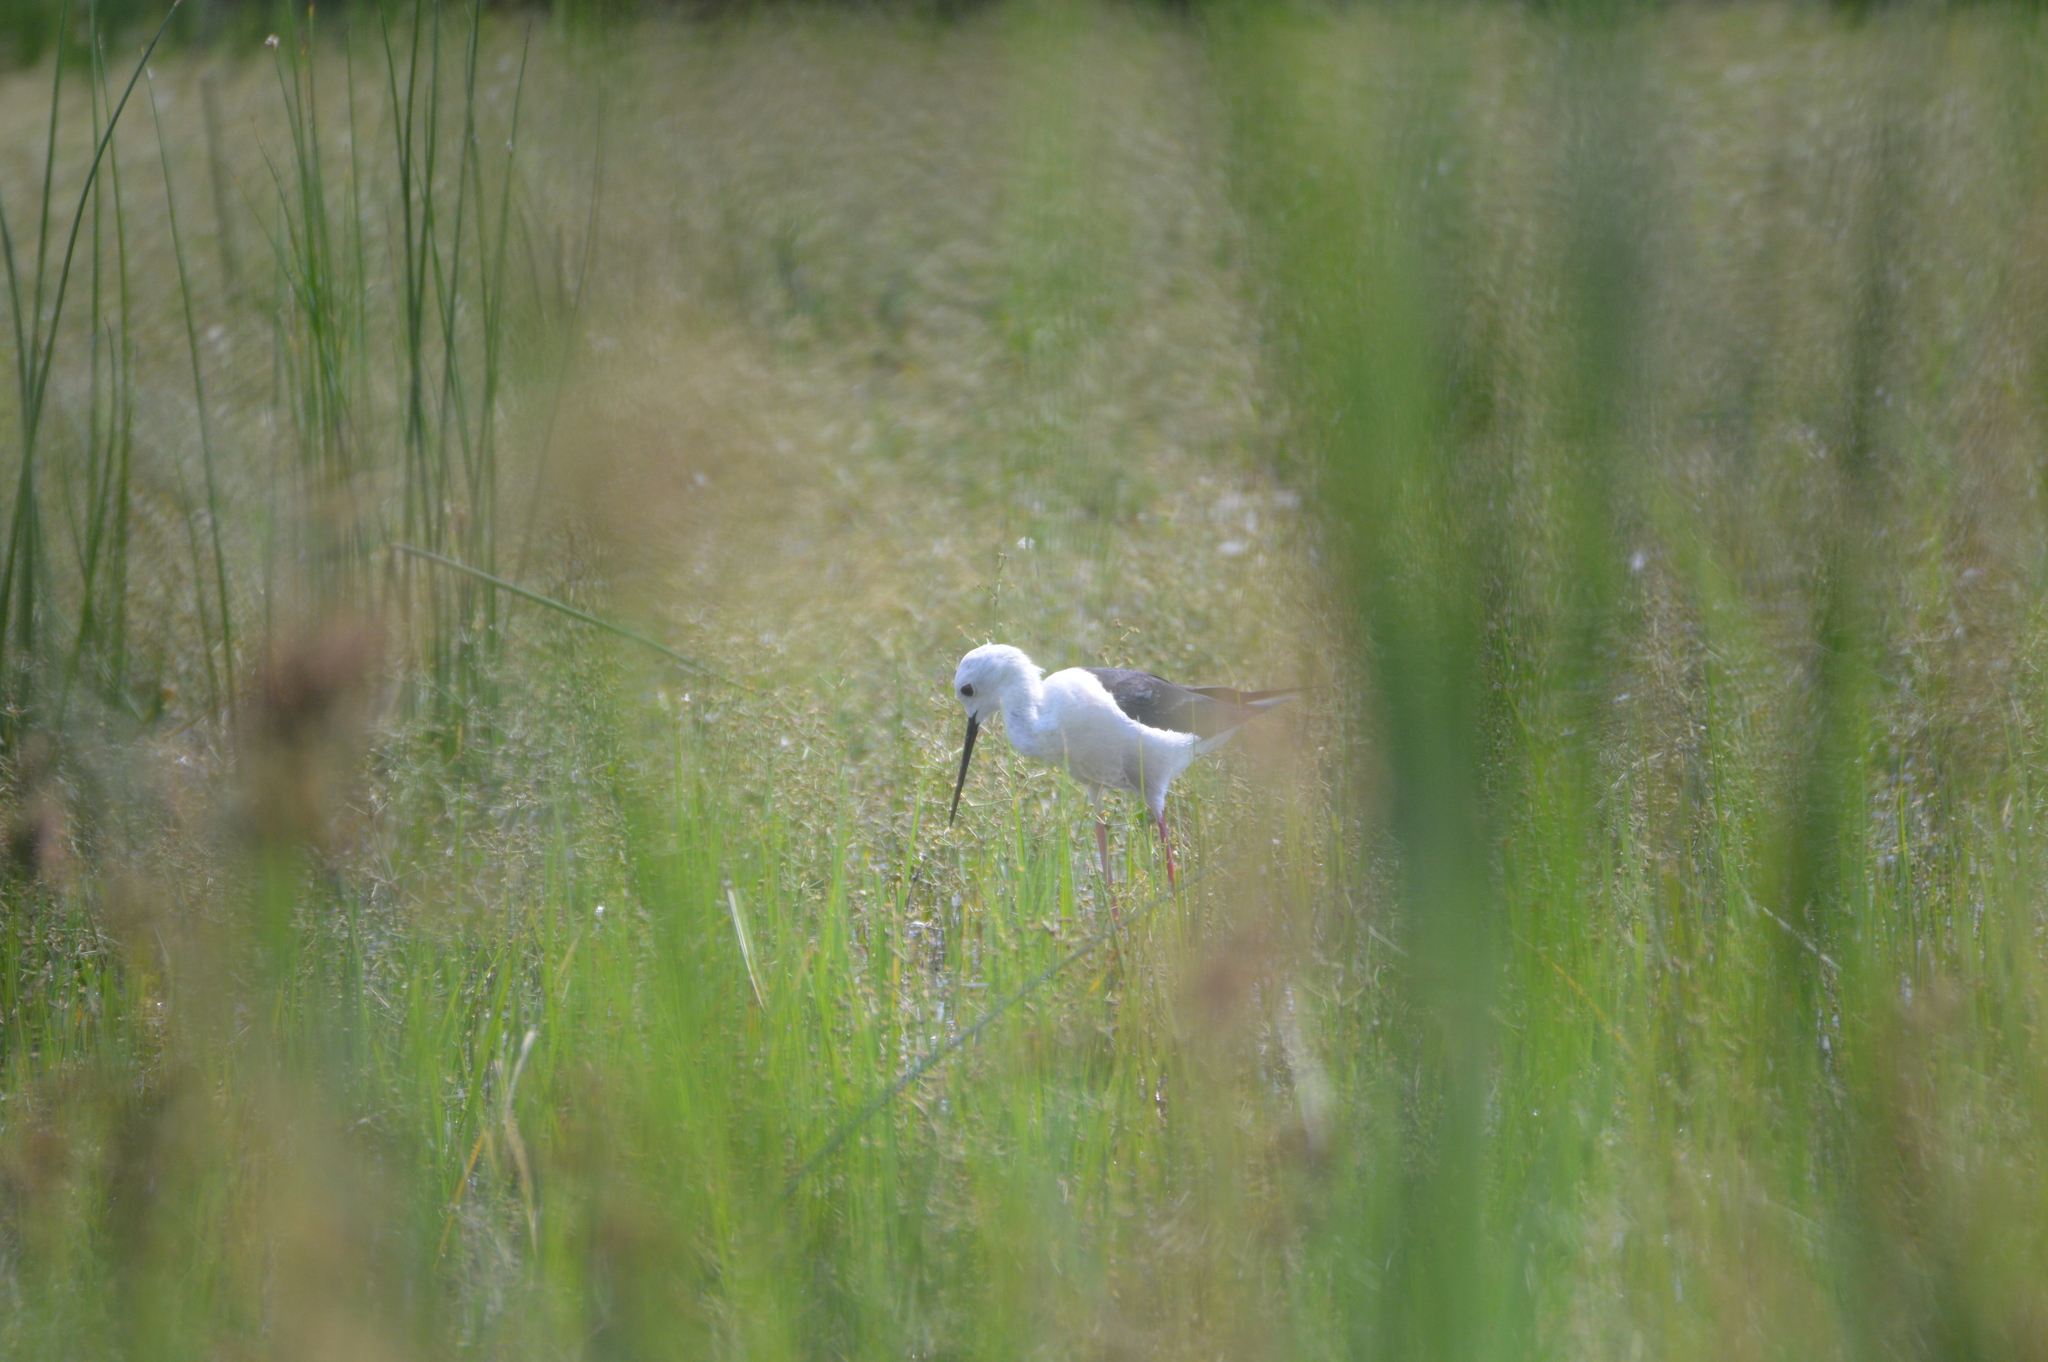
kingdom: Animalia
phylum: Chordata
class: Aves
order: Charadriiformes
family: Recurvirostridae
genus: Himantopus
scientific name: Himantopus himantopus
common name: Black-winged stilt
